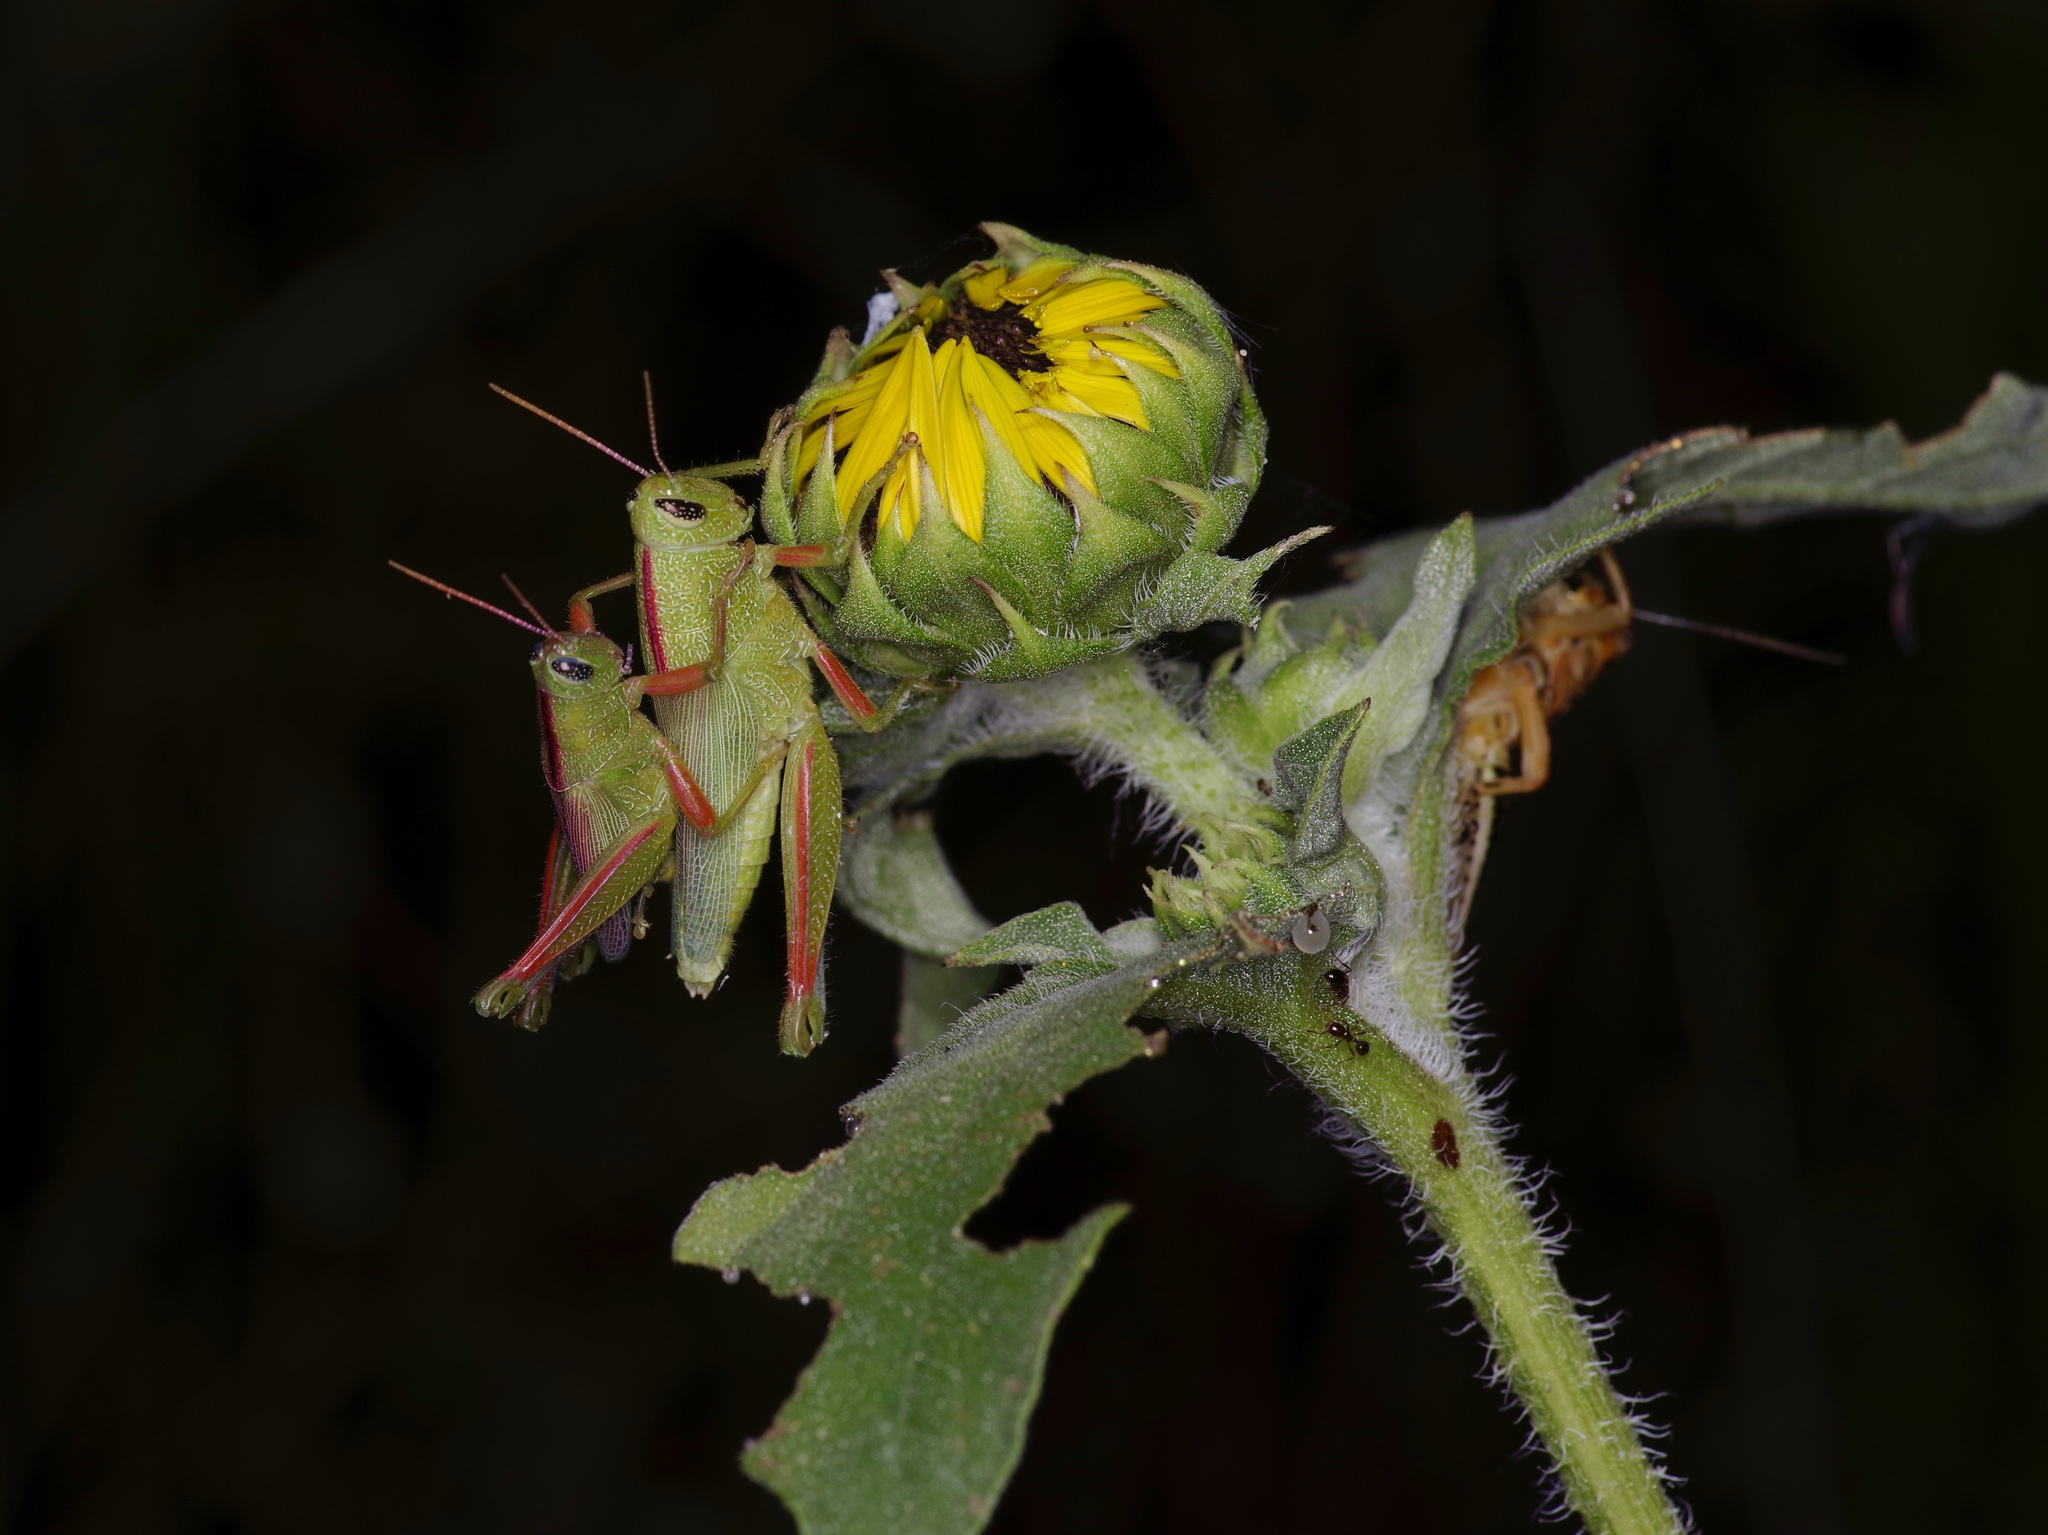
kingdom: Animalia
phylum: Arthropoda
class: Insecta
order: Orthoptera
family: Acrididae
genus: Hesperotettix
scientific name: Hesperotettix speciosus
